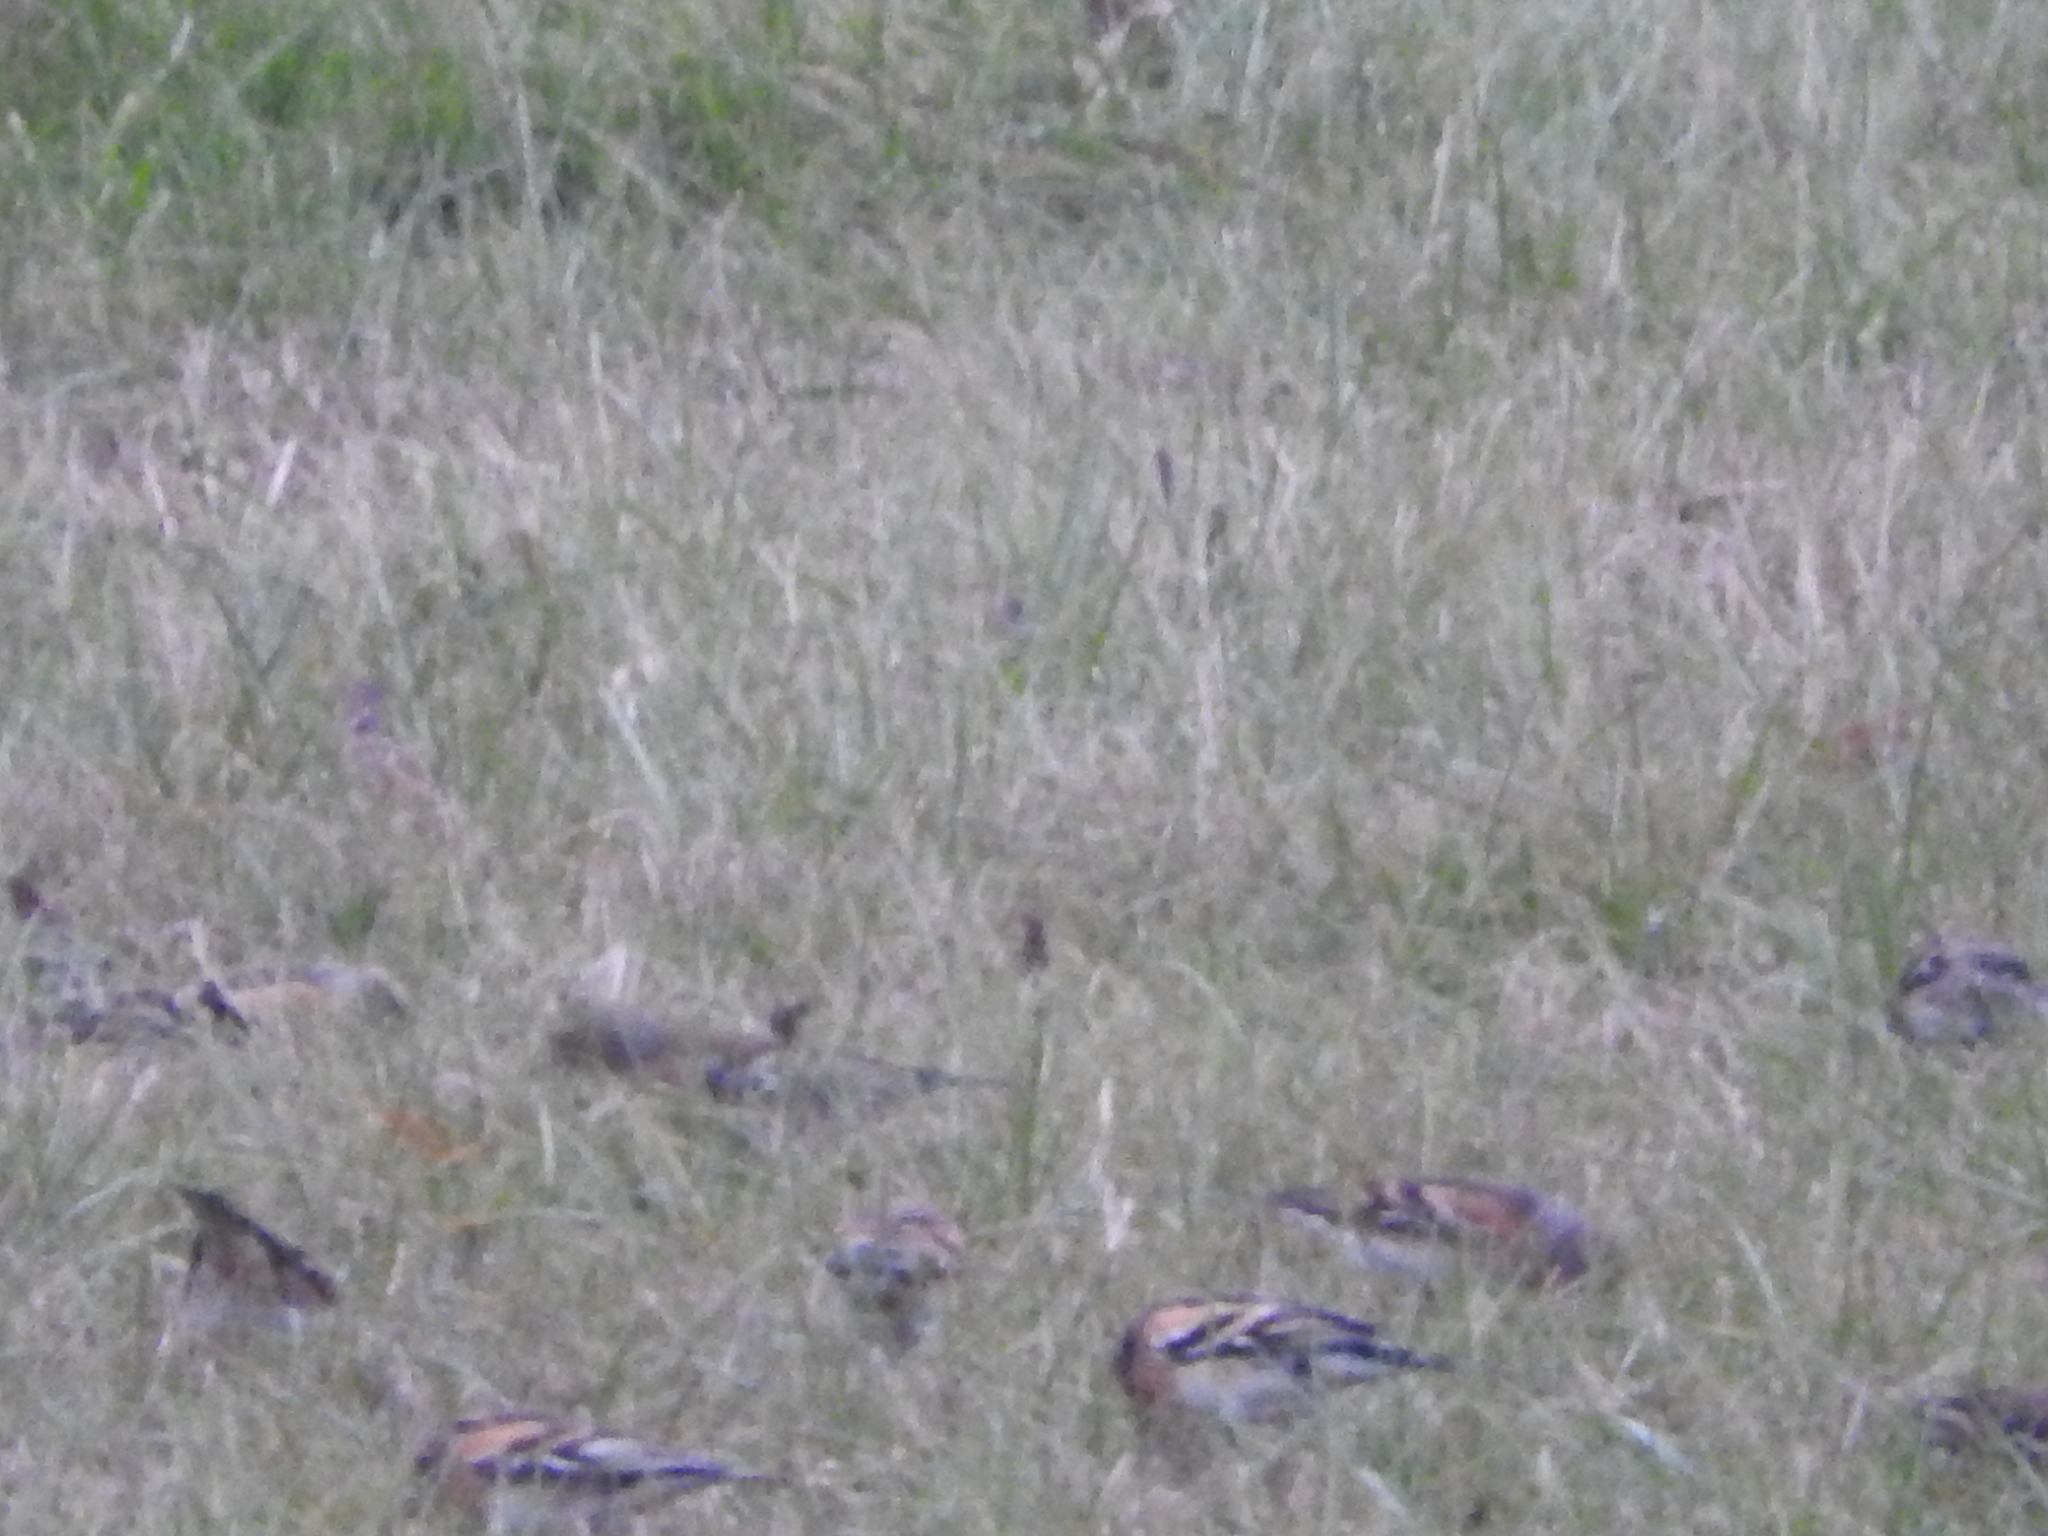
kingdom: Animalia
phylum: Chordata
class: Aves
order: Passeriformes
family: Fringillidae
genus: Fringilla
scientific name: Fringilla montifringilla
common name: Brambling
